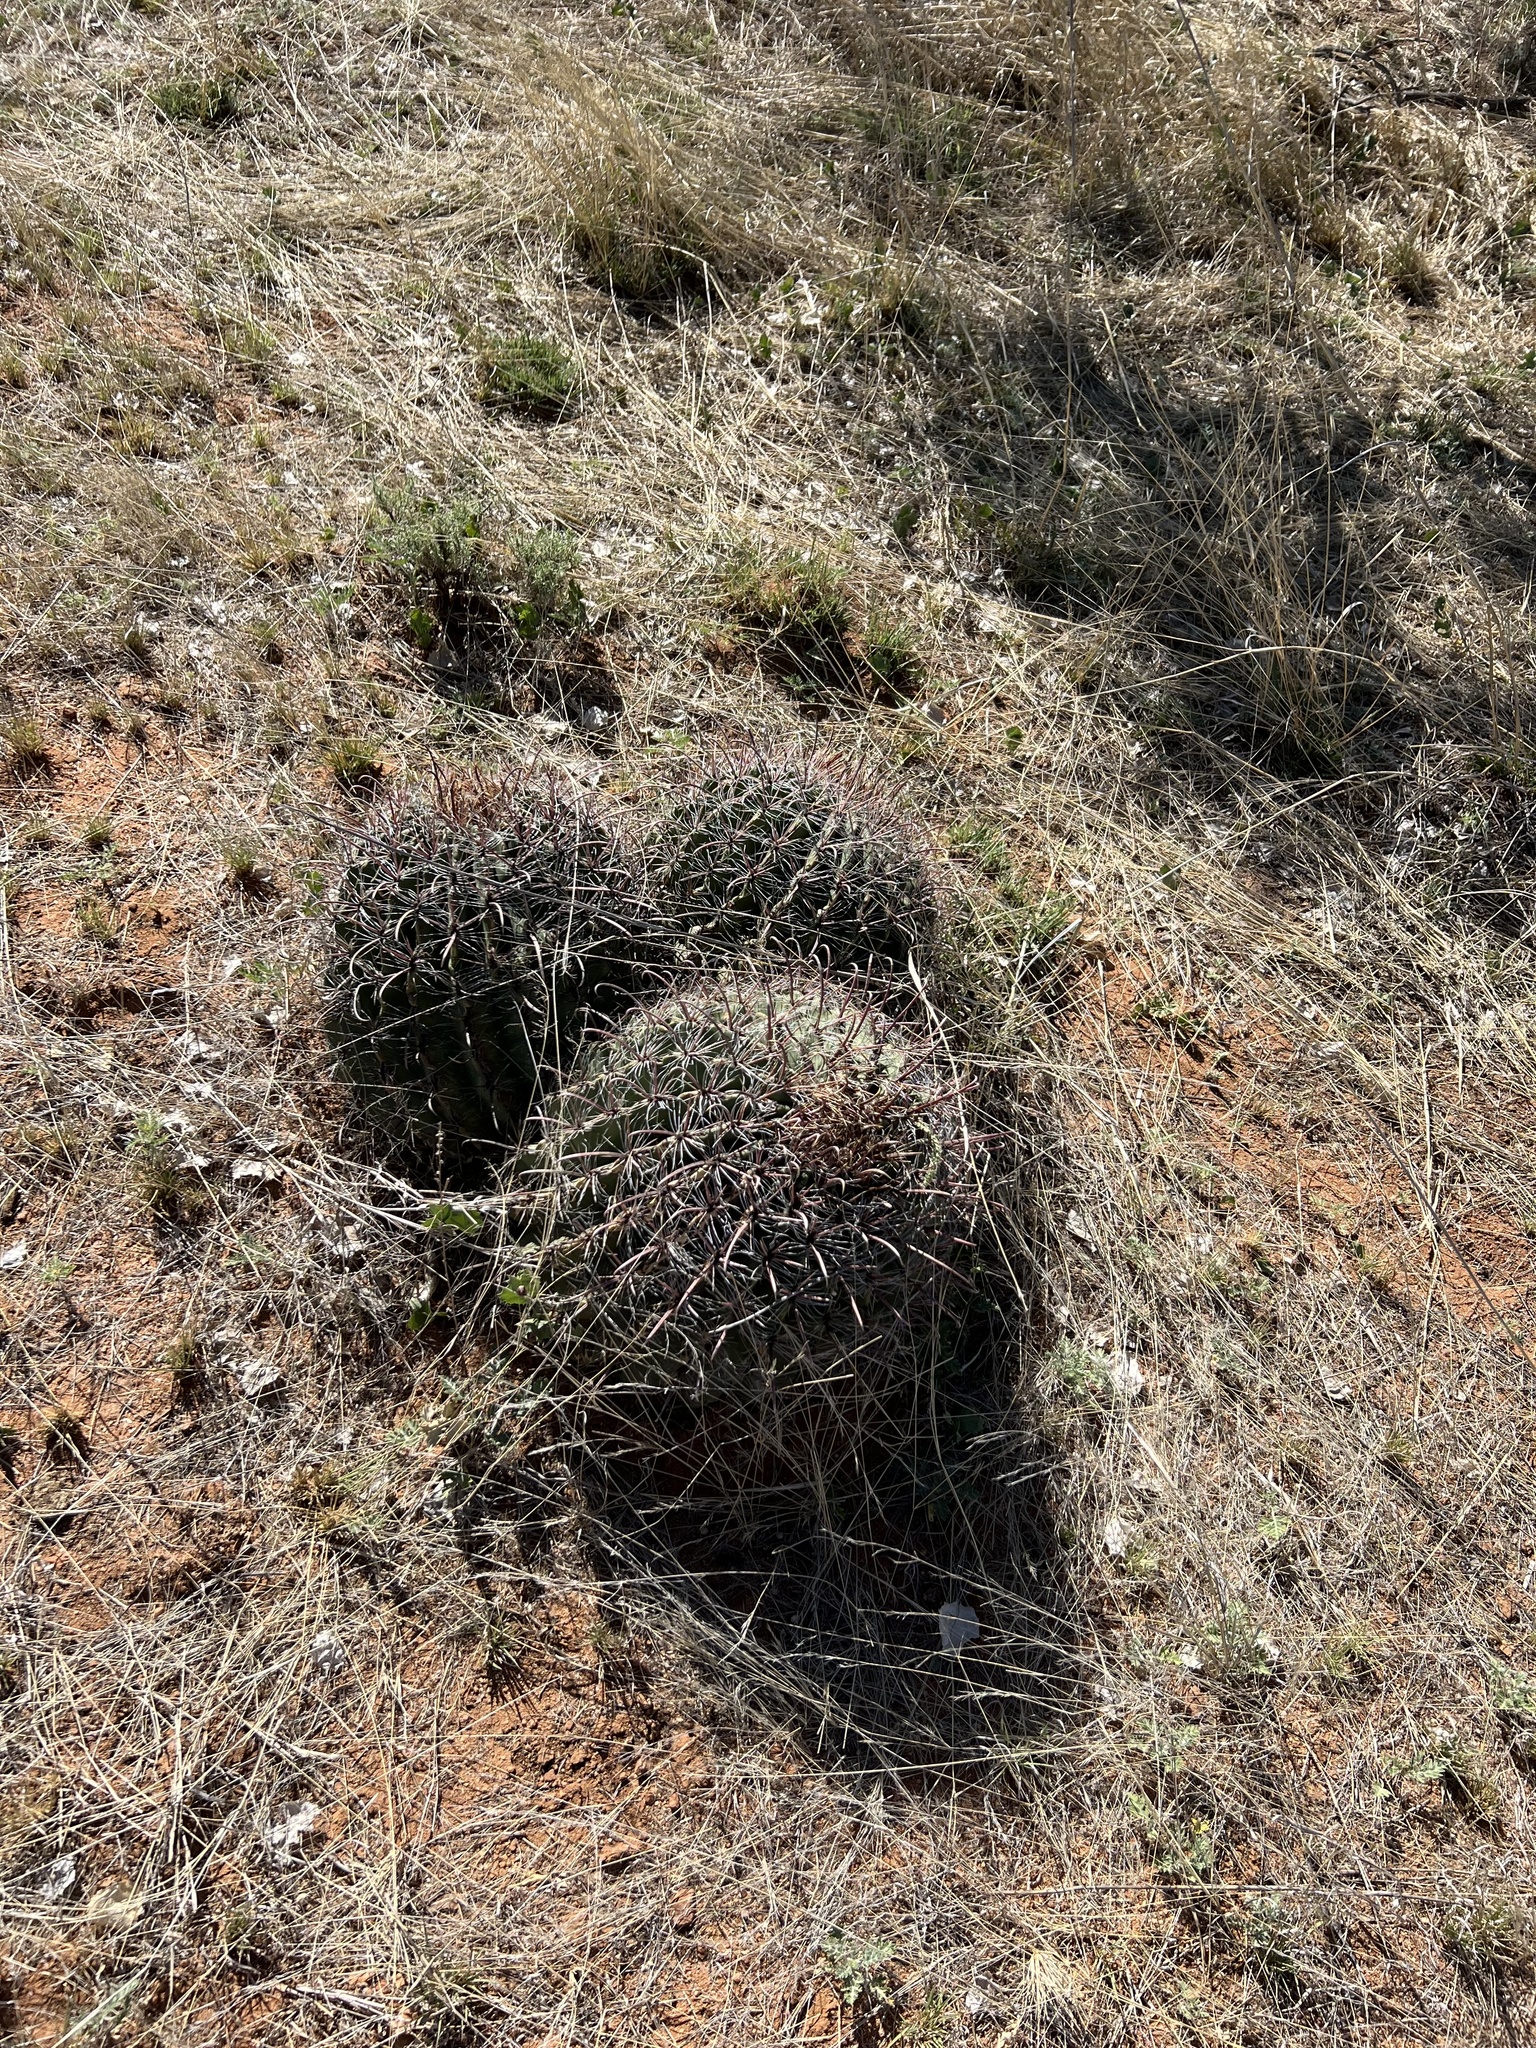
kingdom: Plantae
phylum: Tracheophyta
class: Magnoliopsida
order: Caryophyllales
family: Cactaceae
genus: Ferocactus
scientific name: Ferocactus wislizeni
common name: Candy barrel cactus
